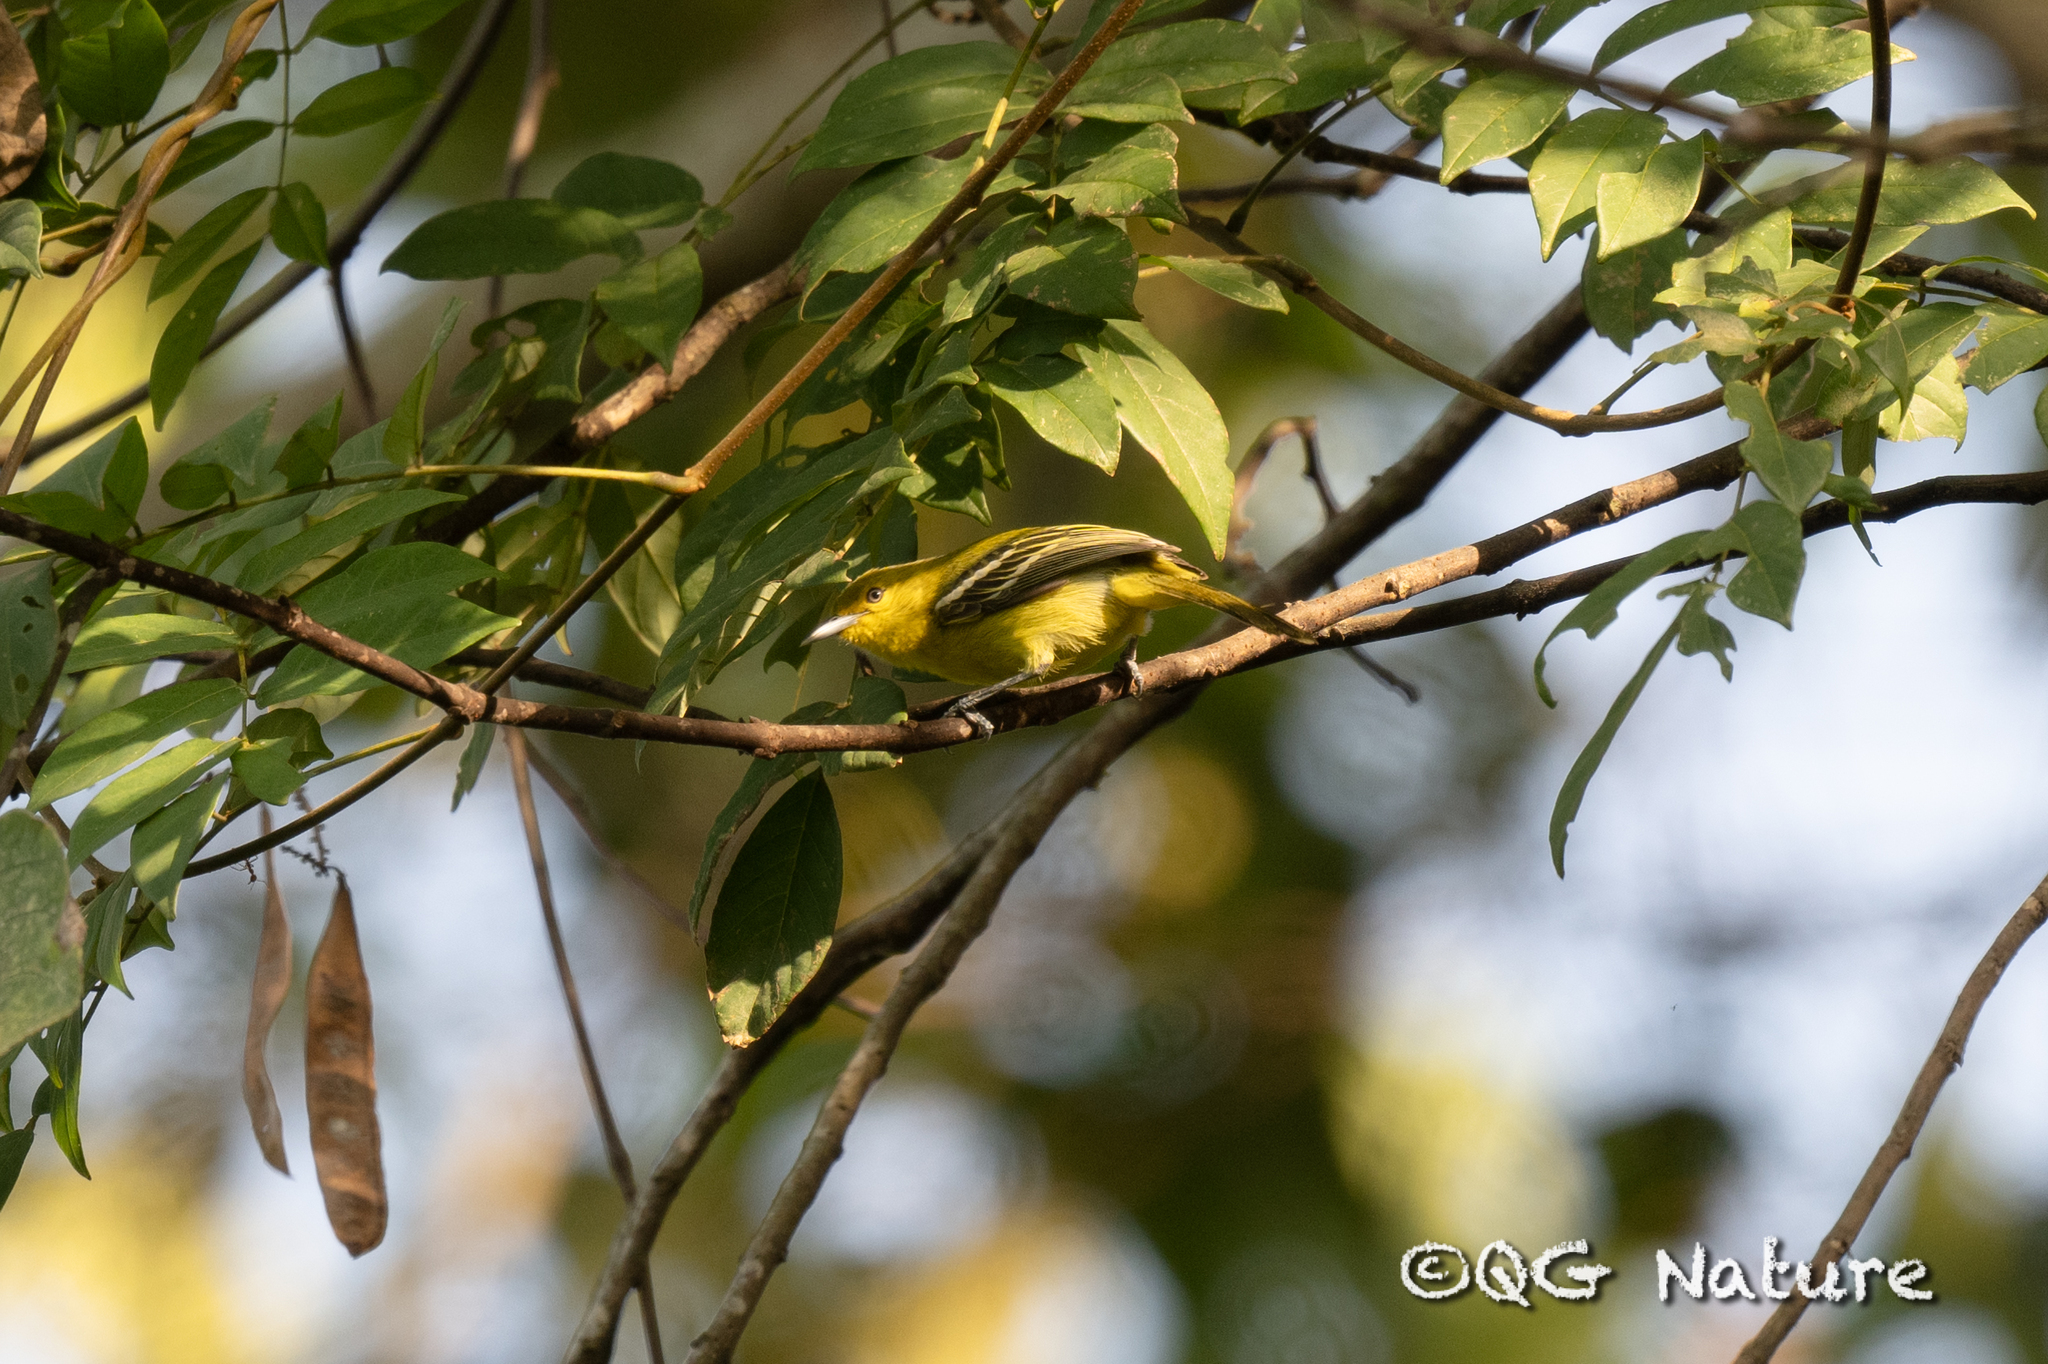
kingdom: Animalia
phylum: Chordata
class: Aves
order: Passeriformes
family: Aegithinidae
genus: Aegithina
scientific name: Aegithina tiphia
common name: Common iora
